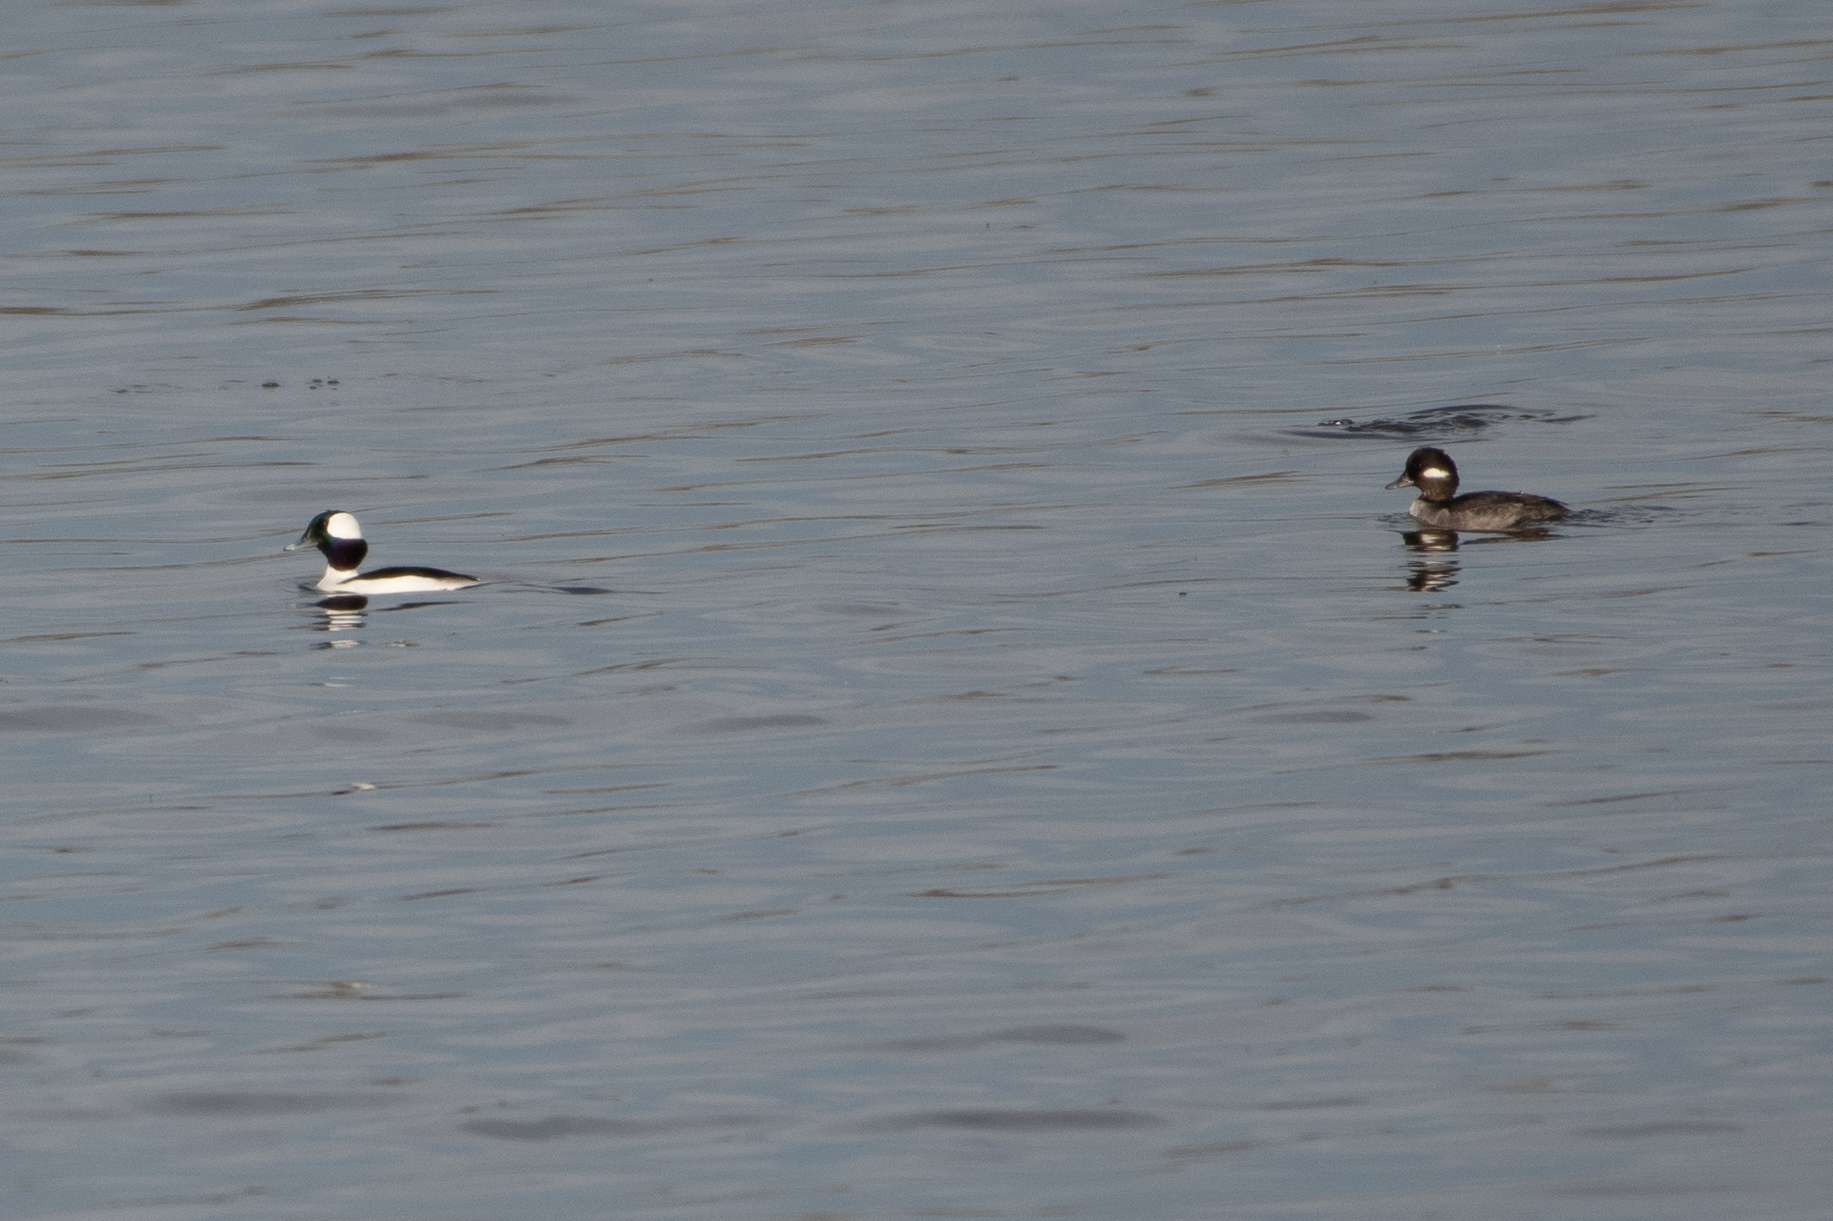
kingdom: Animalia
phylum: Chordata
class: Aves
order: Anseriformes
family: Anatidae
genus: Bucephala
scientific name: Bucephala albeola
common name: Bufflehead
